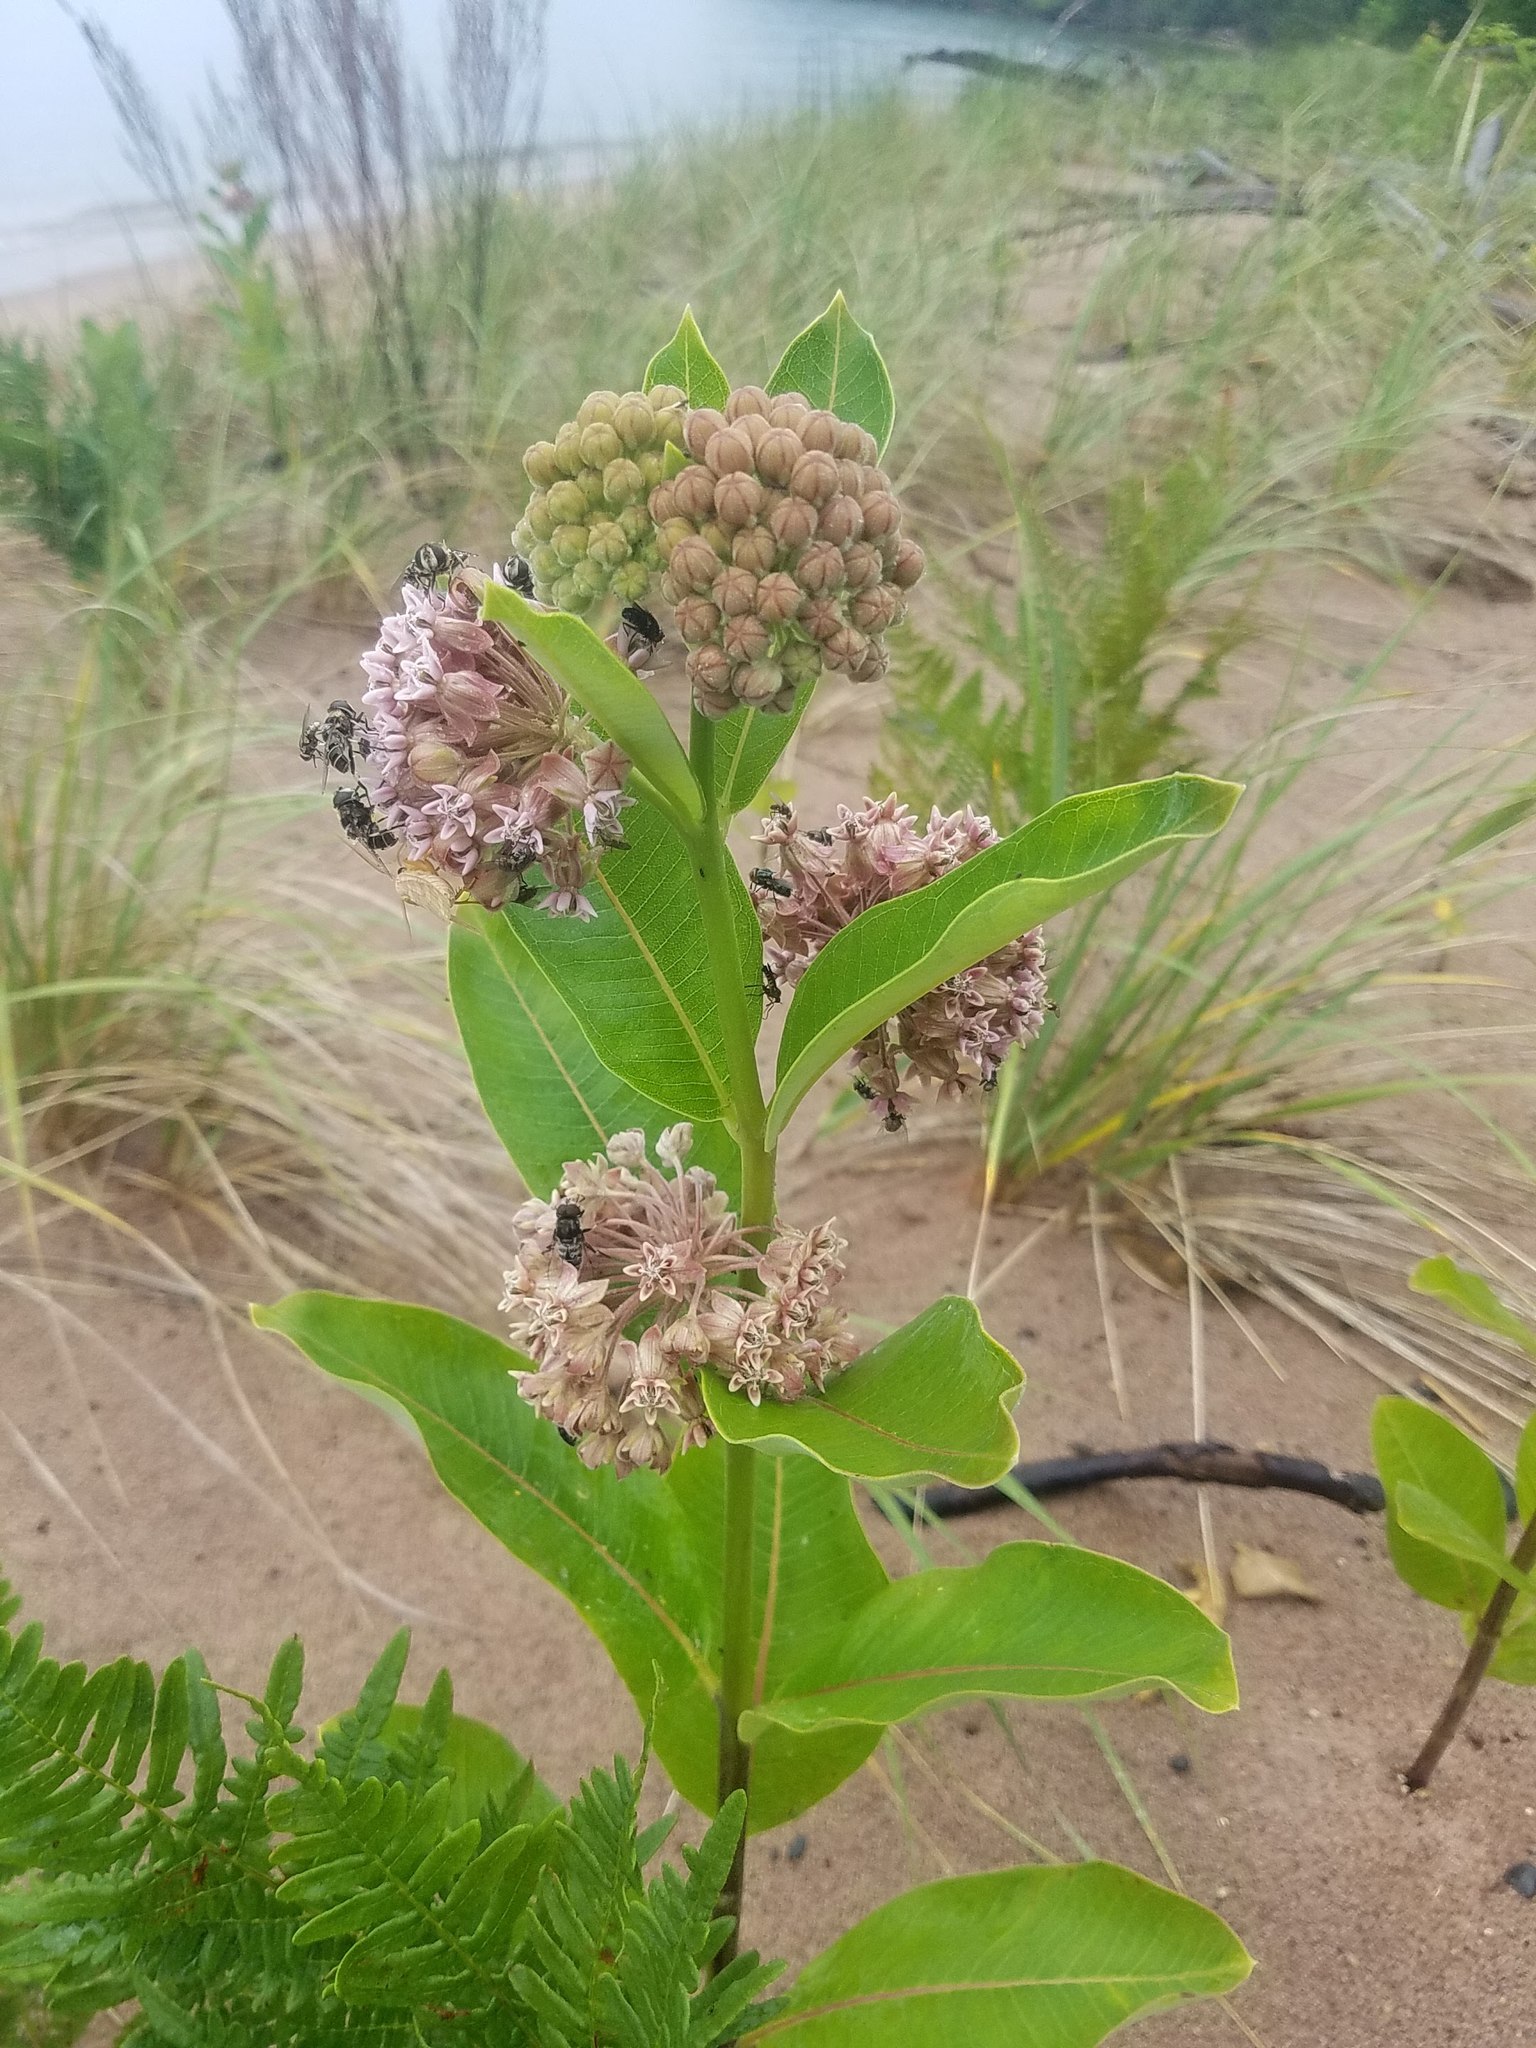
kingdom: Plantae
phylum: Tracheophyta
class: Magnoliopsida
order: Gentianales
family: Apocynaceae
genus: Asclepias
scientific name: Asclepias syriaca
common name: Common milkweed
